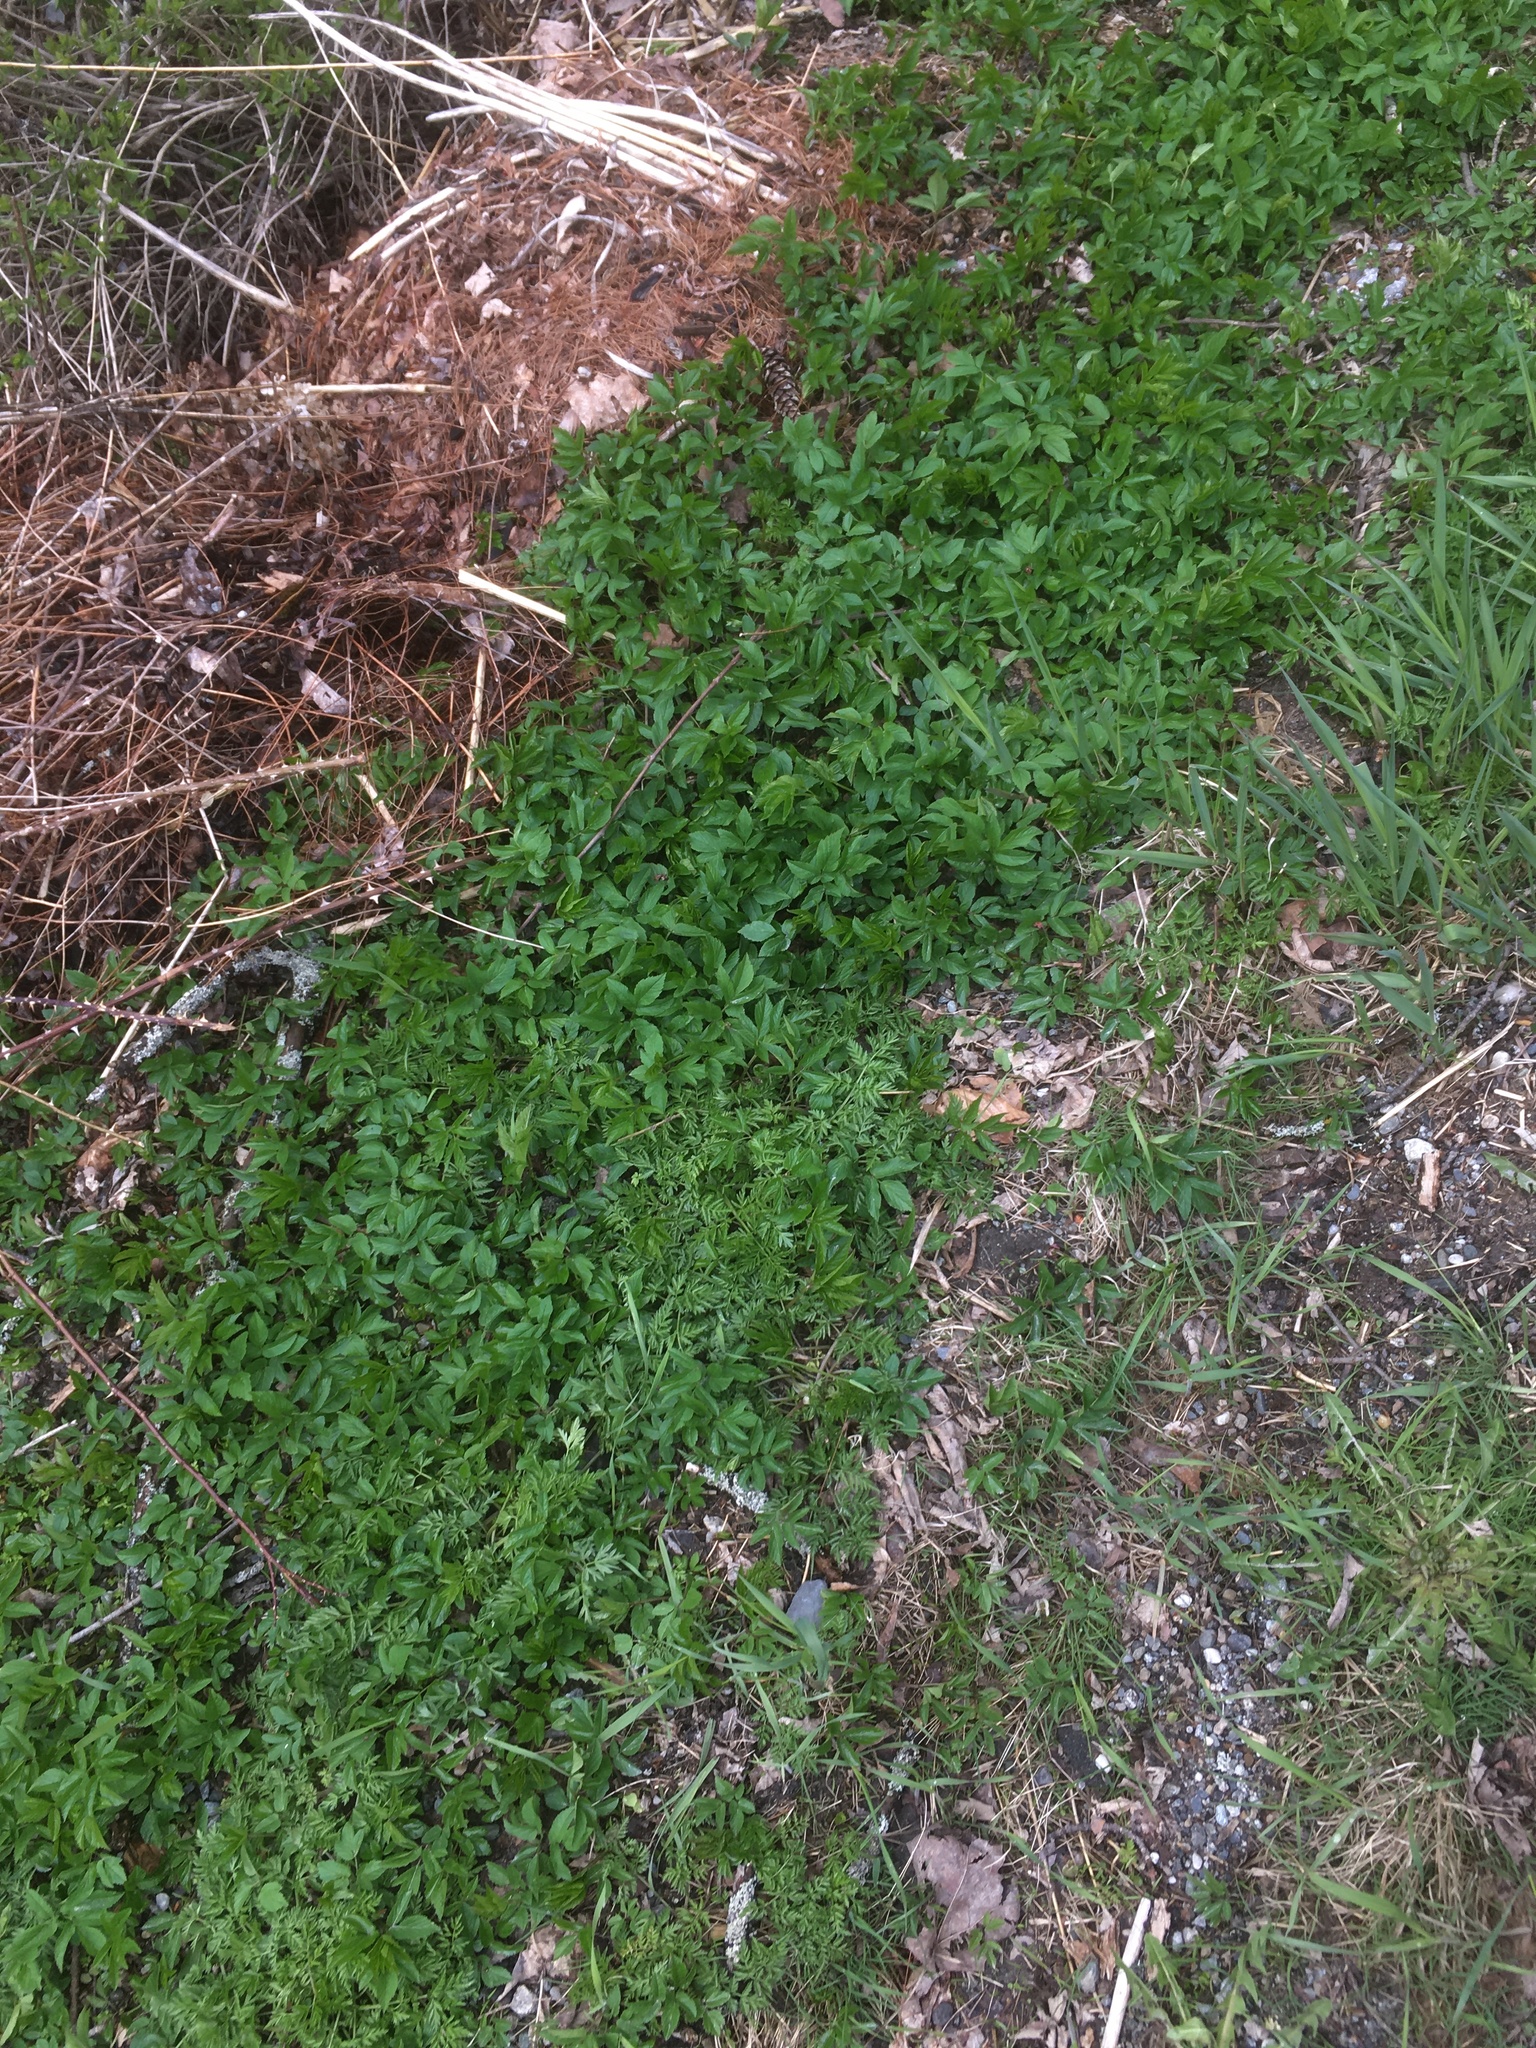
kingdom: Plantae
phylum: Tracheophyta
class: Magnoliopsida
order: Apiales
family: Apiaceae
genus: Aegopodium
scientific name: Aegopodium podagraria
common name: Ground-elder
